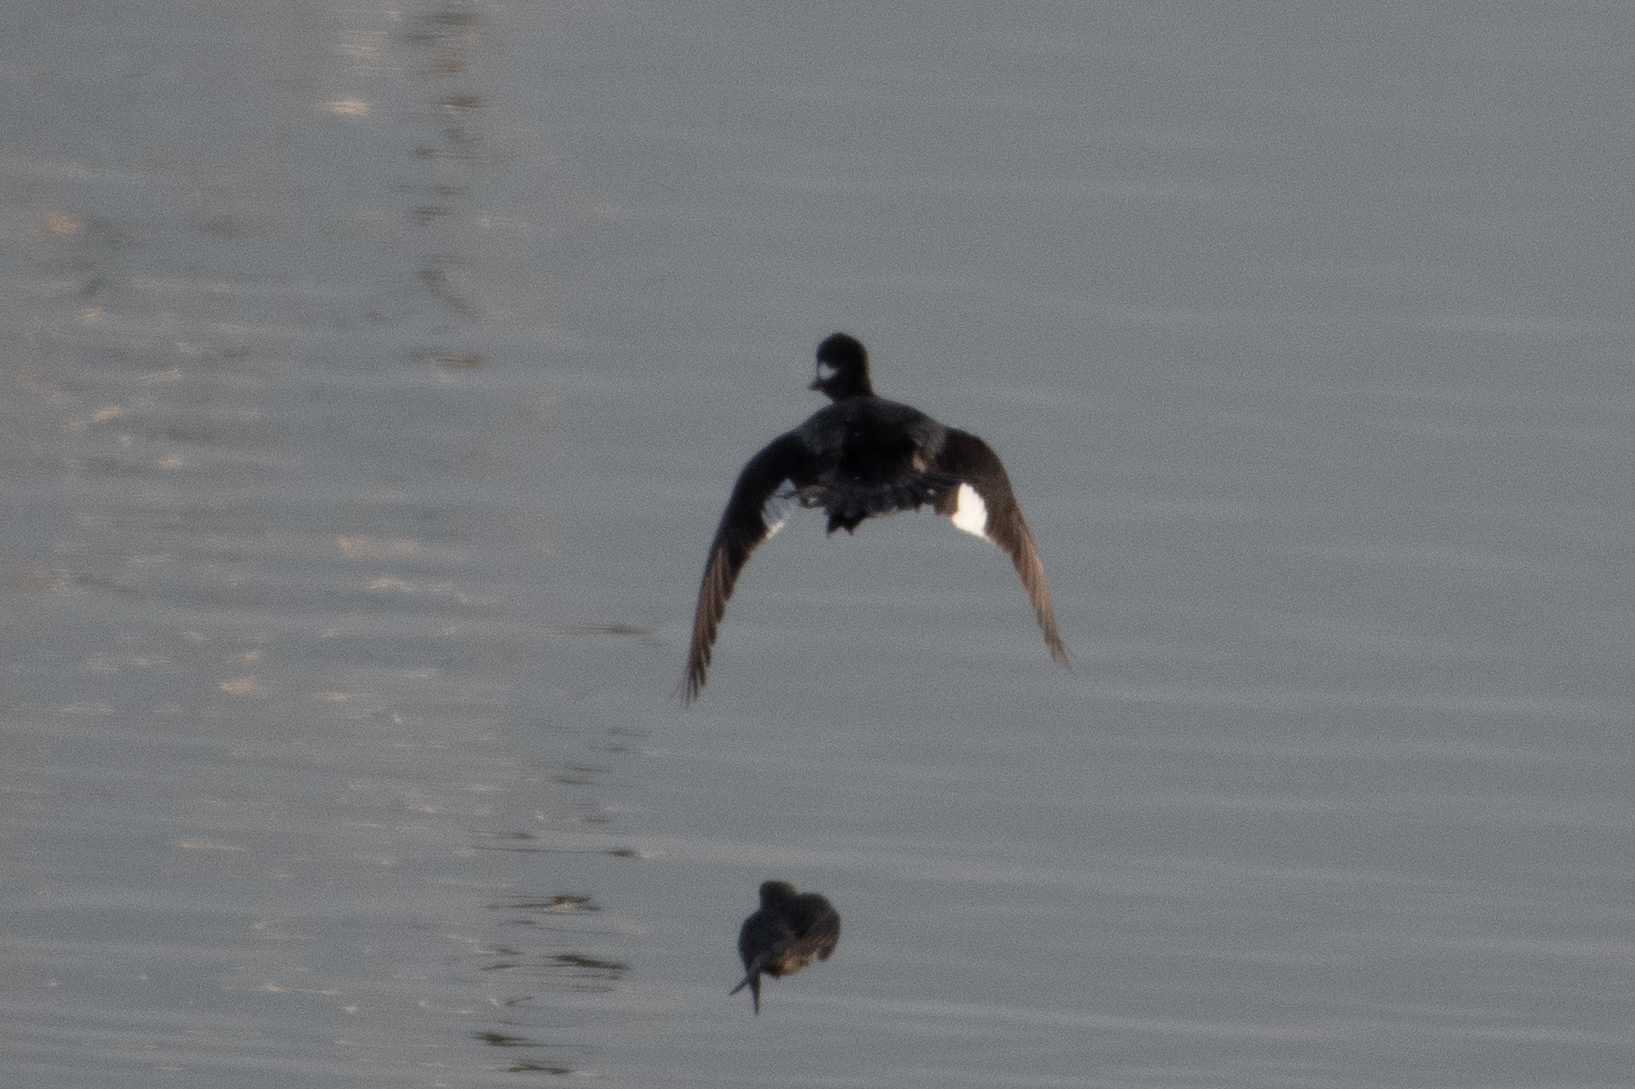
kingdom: Animalia
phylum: Chordata
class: Aves
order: Anseriformes
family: Anatidae
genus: Bucephala
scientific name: Bucephala albeola
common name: Bufflehead
